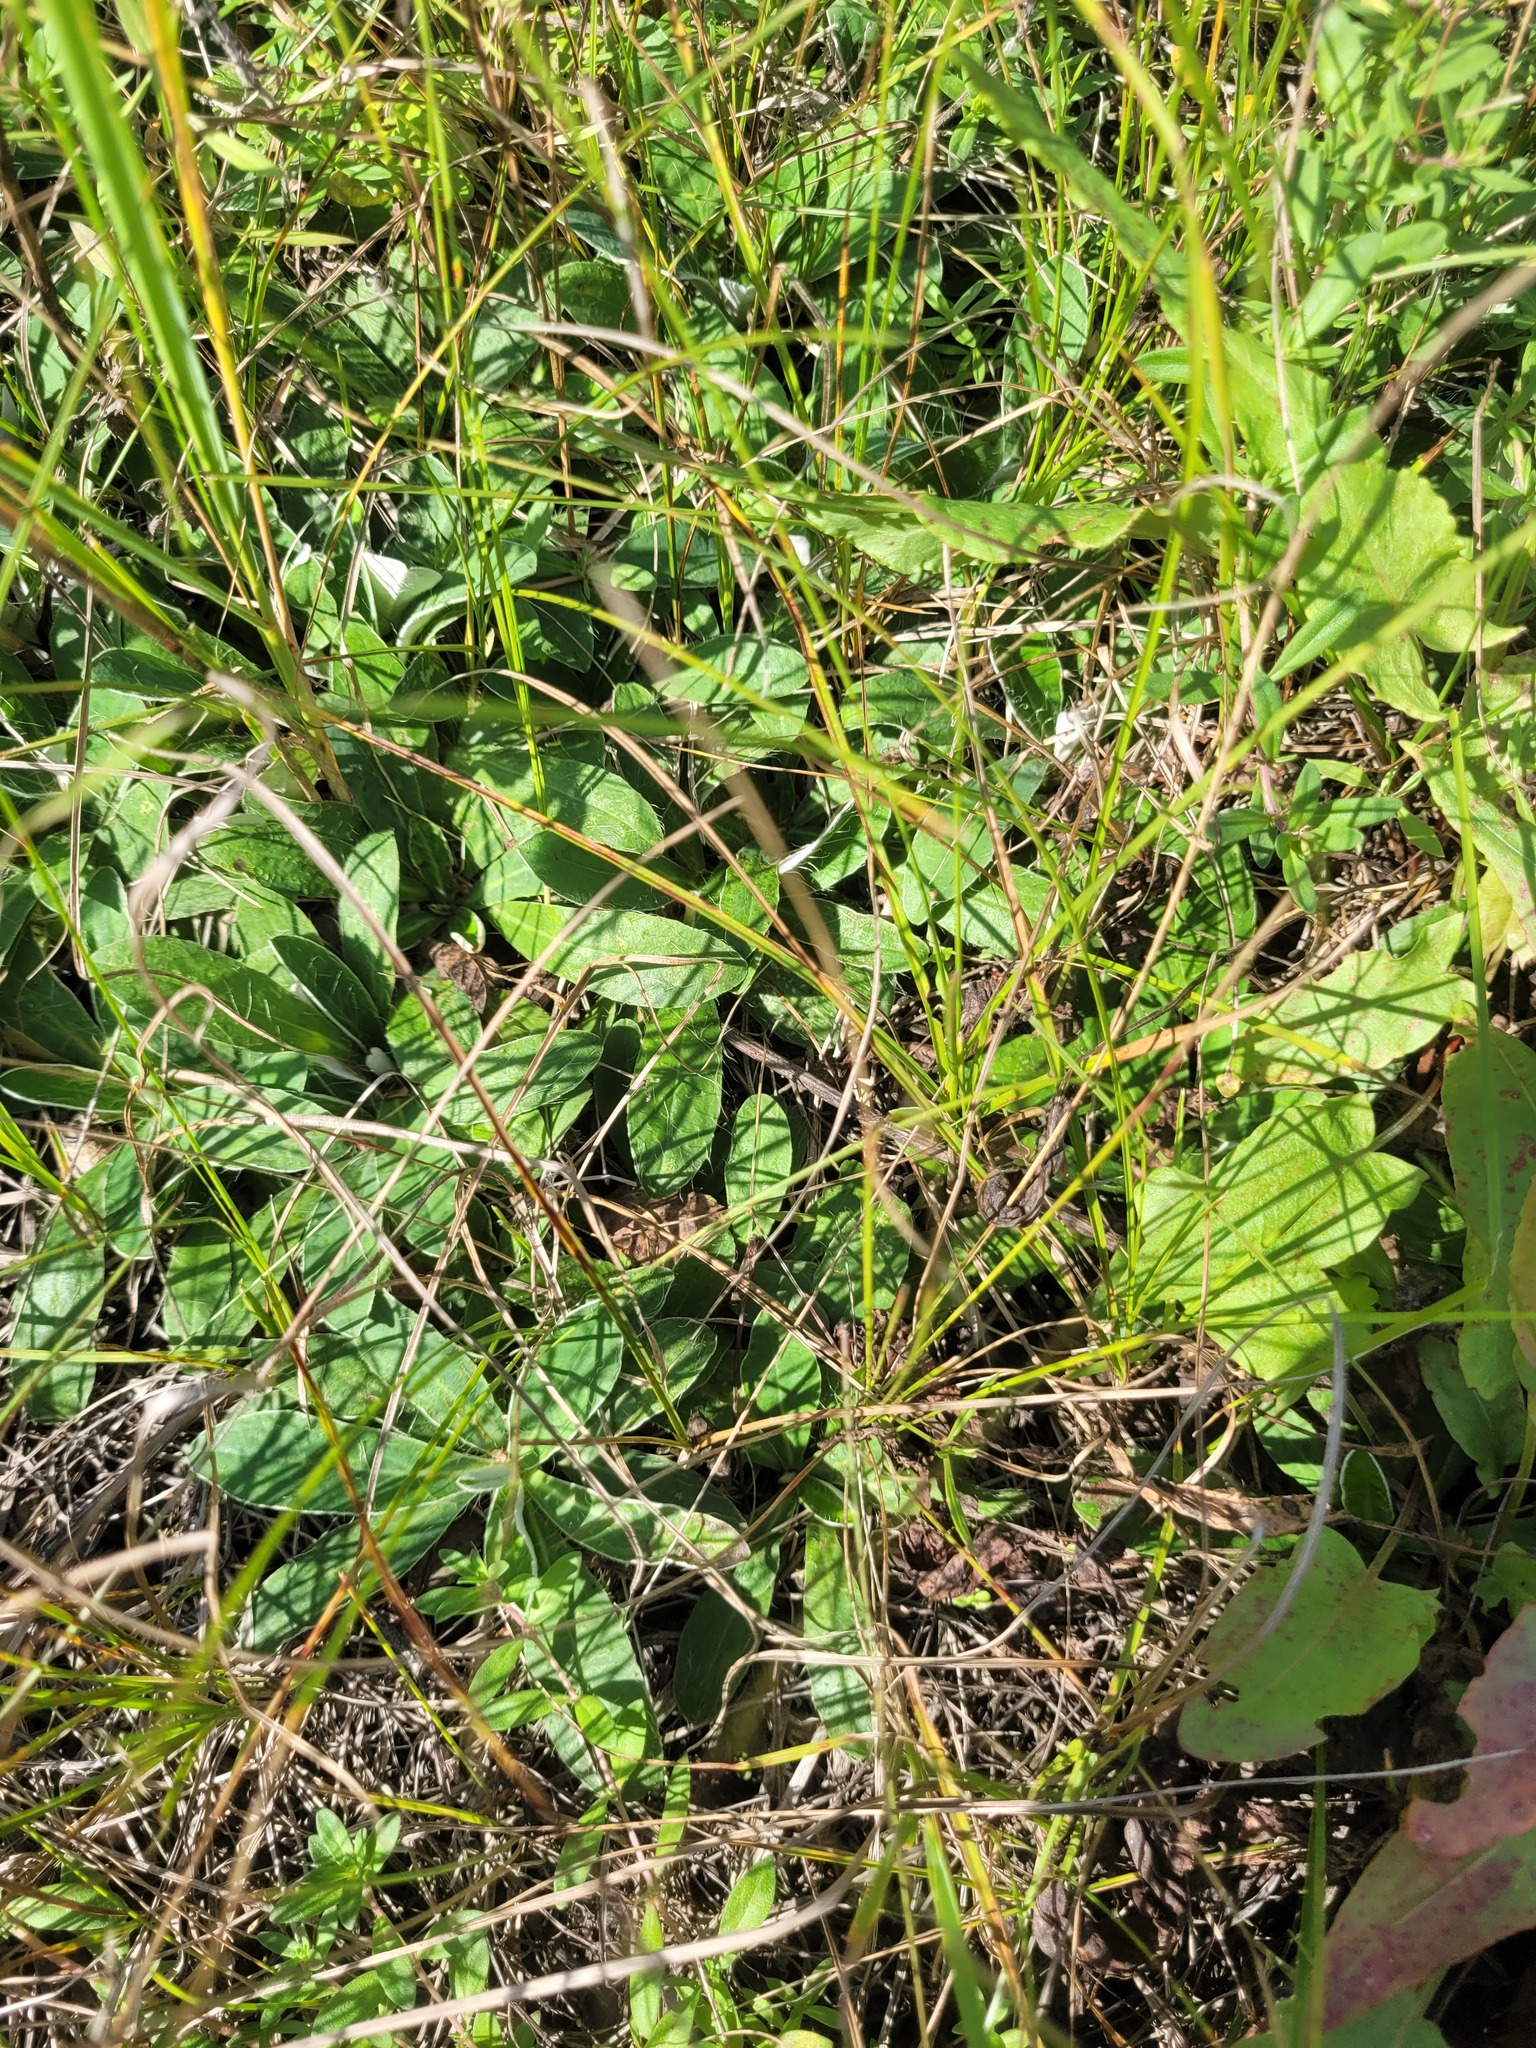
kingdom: Plantae
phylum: Tracheophyta
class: Magnoliopsida
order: Asterales
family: Asteraceae
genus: Pilosella
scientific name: Pilosella officinarum
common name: Mouse-ear hawkweed
